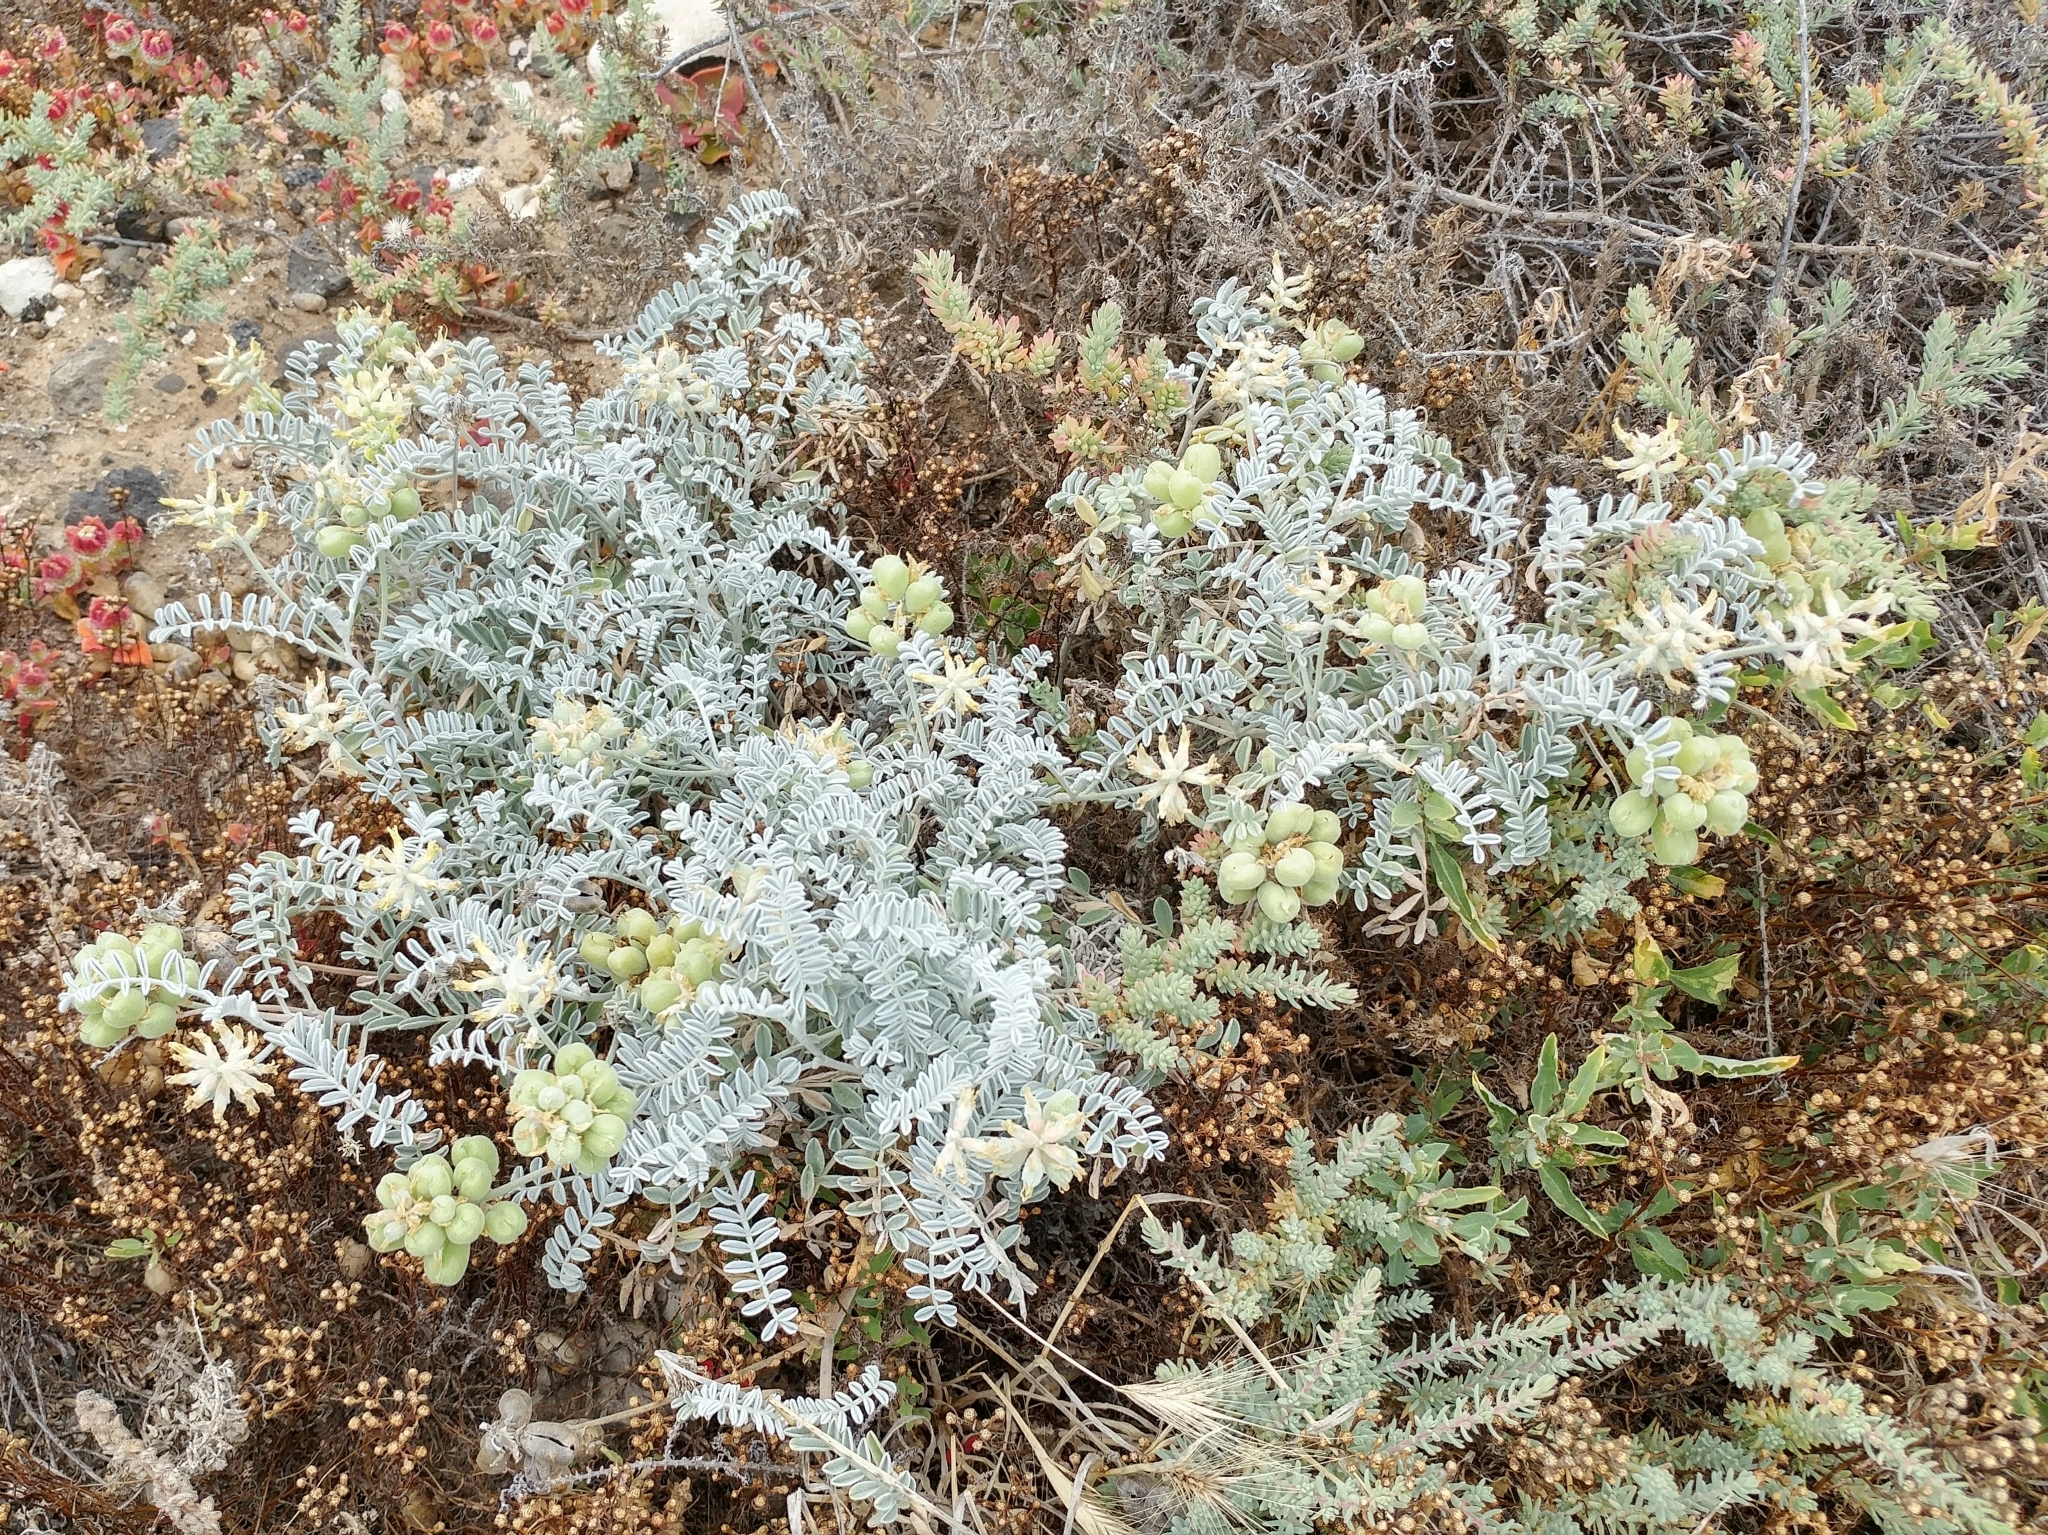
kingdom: Plantae
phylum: Tracheophyta
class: Magnoliopsida
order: Fabales
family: Fabaceae
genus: Astragalus
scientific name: Astragalus miguelensis
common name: San miguel milk-vetch
